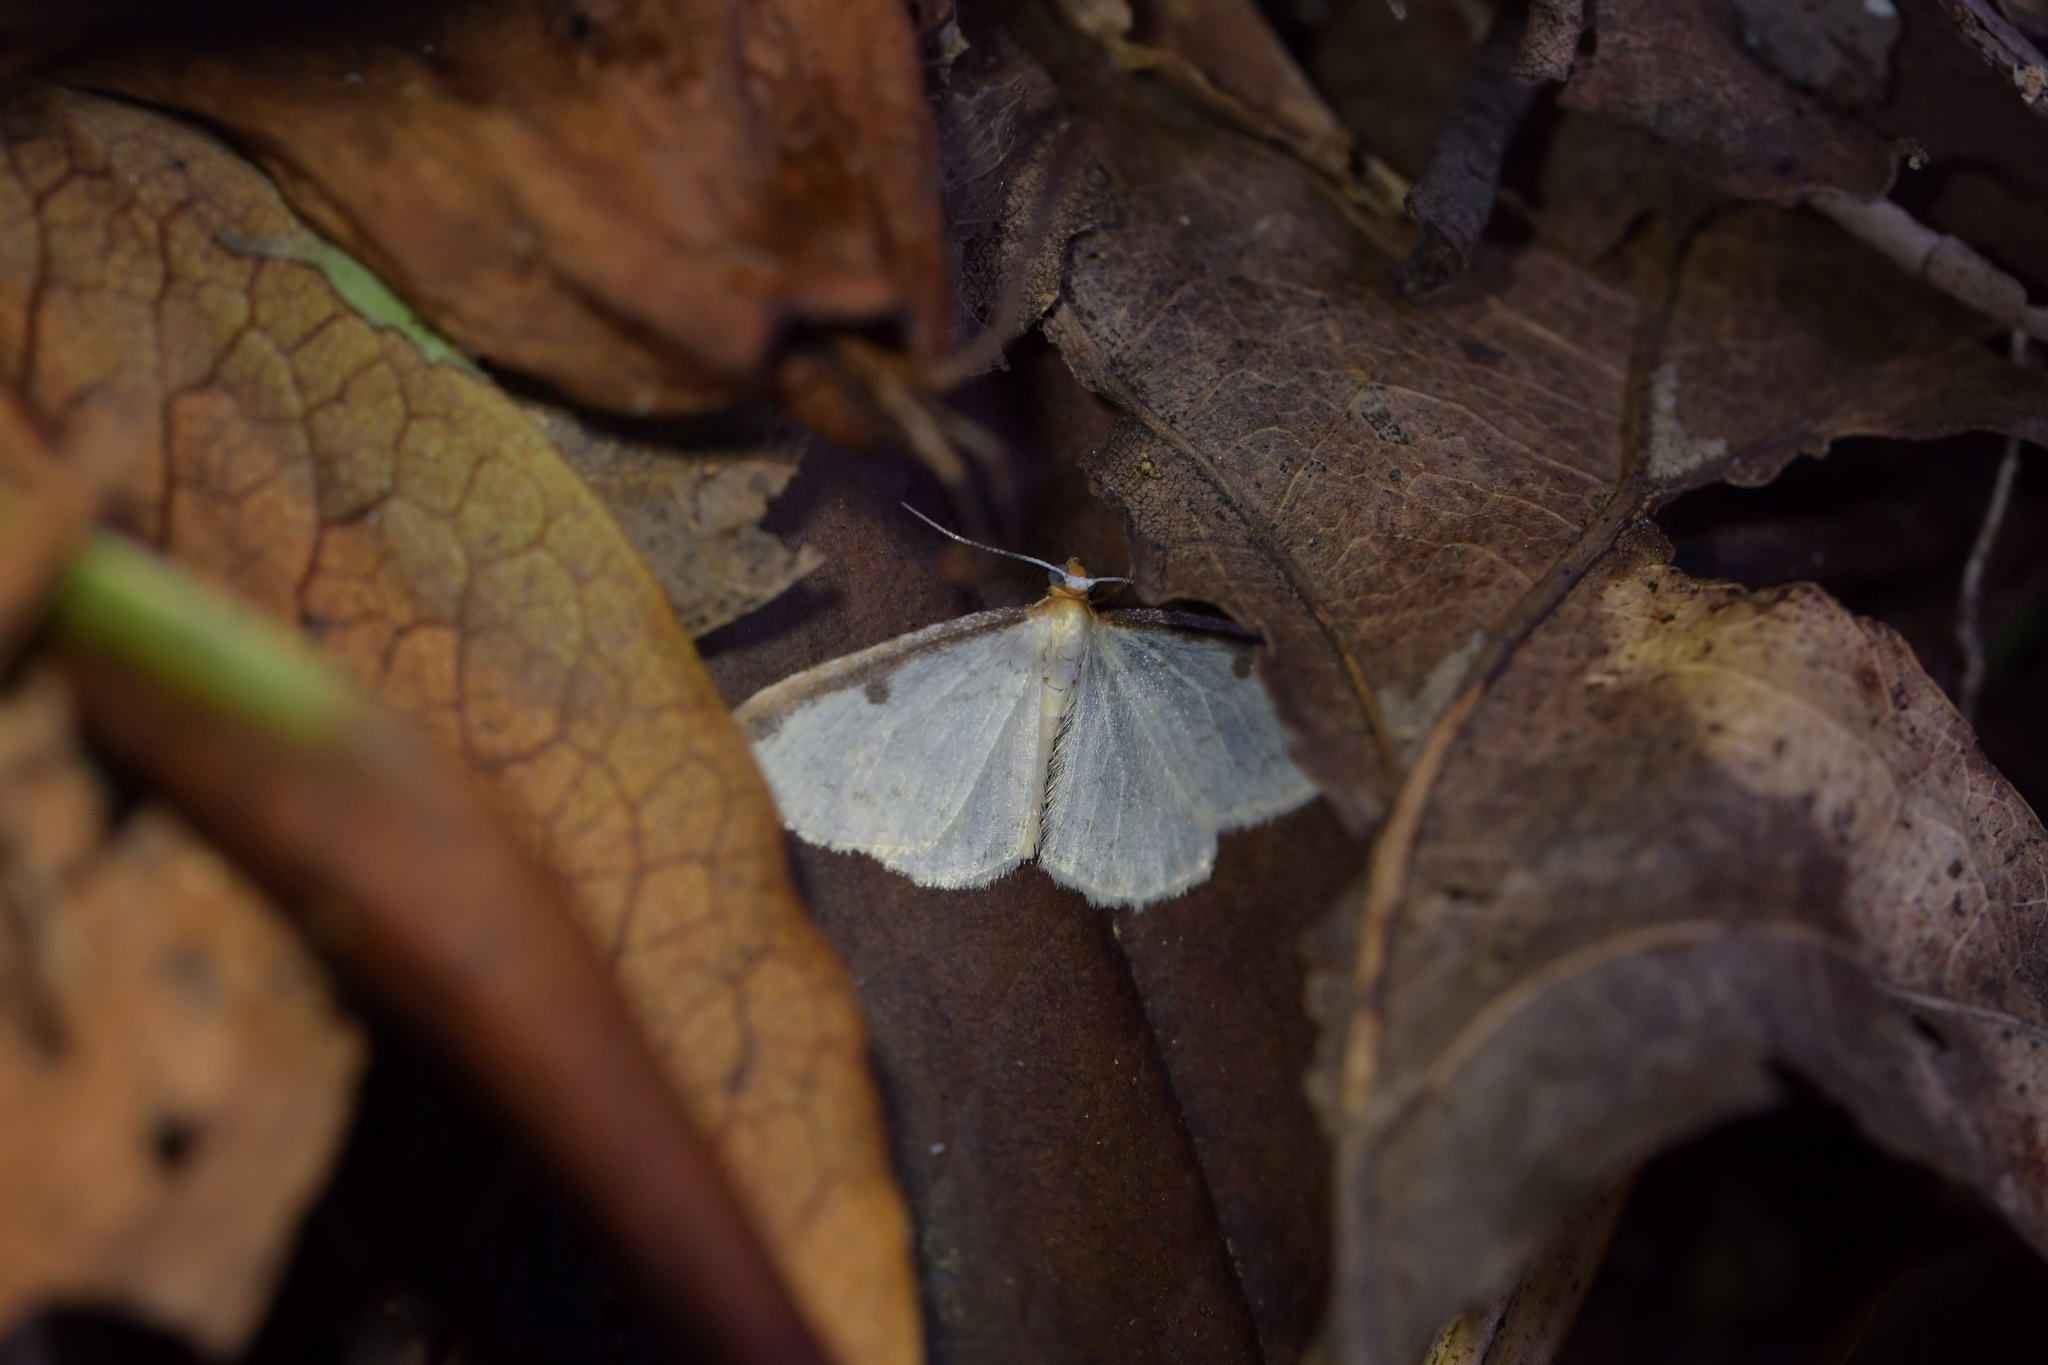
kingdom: Animalia
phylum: Arthropoda
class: Insecta
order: Lepidoptera
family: Geometridae
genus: Epiphryne
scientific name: Epiphryne undosata
